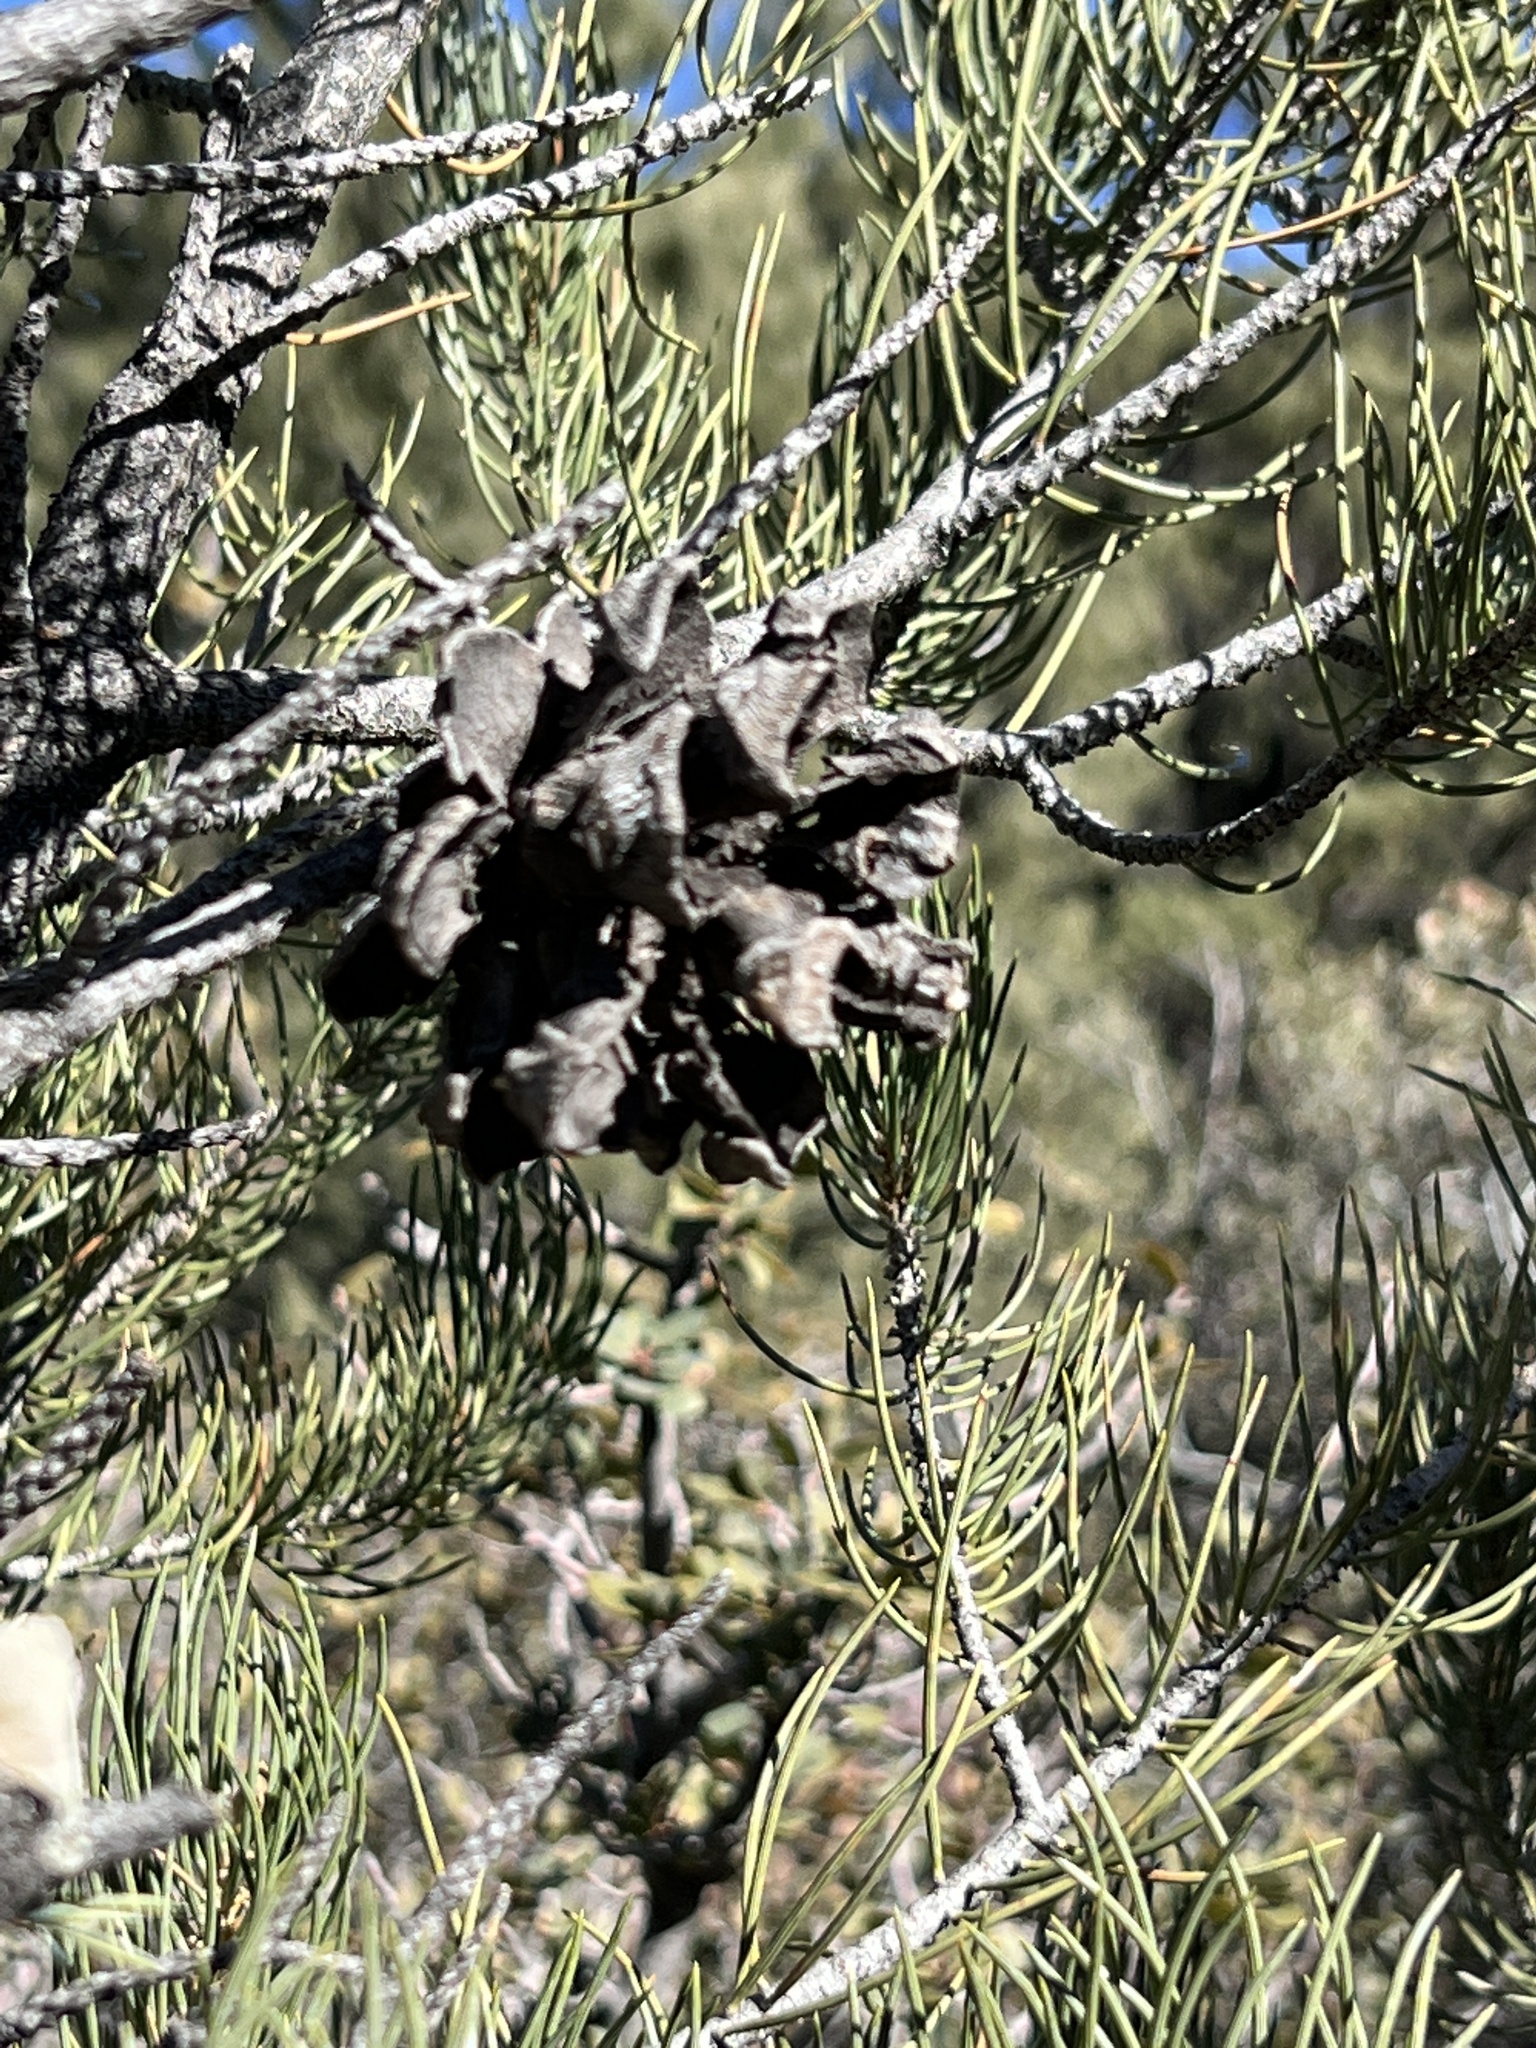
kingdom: Plantae
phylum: Tracheophyta
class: Pinopsida
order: Pinales
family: Pinaceae
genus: Pinus
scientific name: Pinus monophylla
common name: One-leaved nut pine
